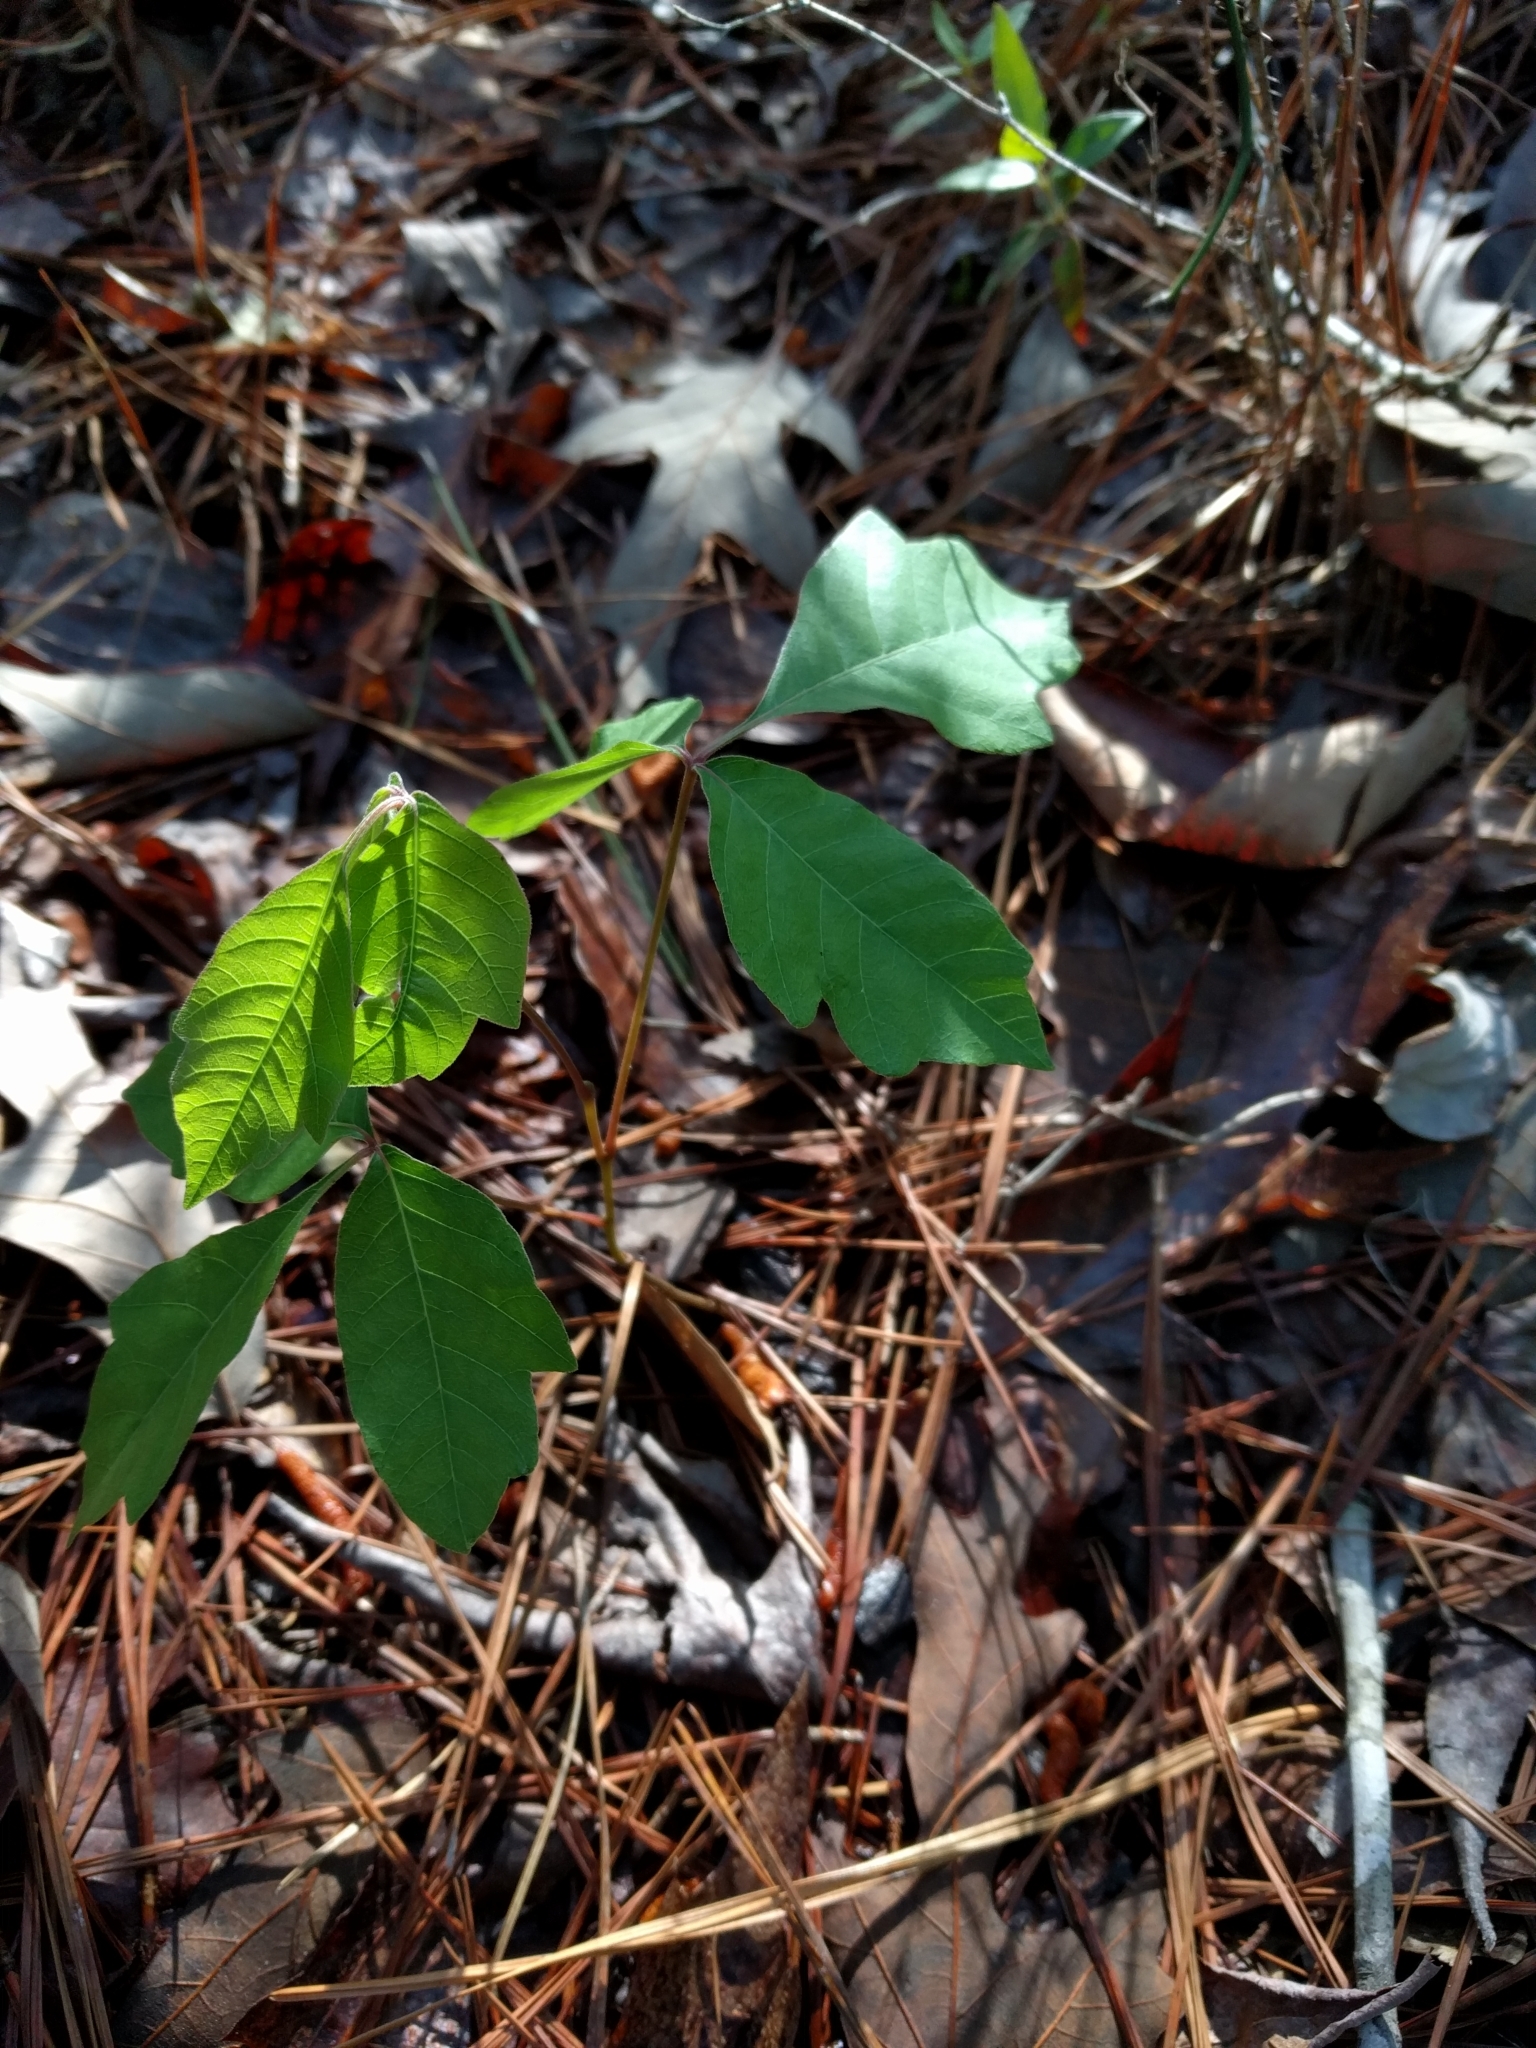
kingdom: Plantae
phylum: Tracheophyta
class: Magnoliopsida
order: Sapindales
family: Anacardiaceae
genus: Toxicodendron
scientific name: Toxicodendron radicans
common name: Poison ivy
